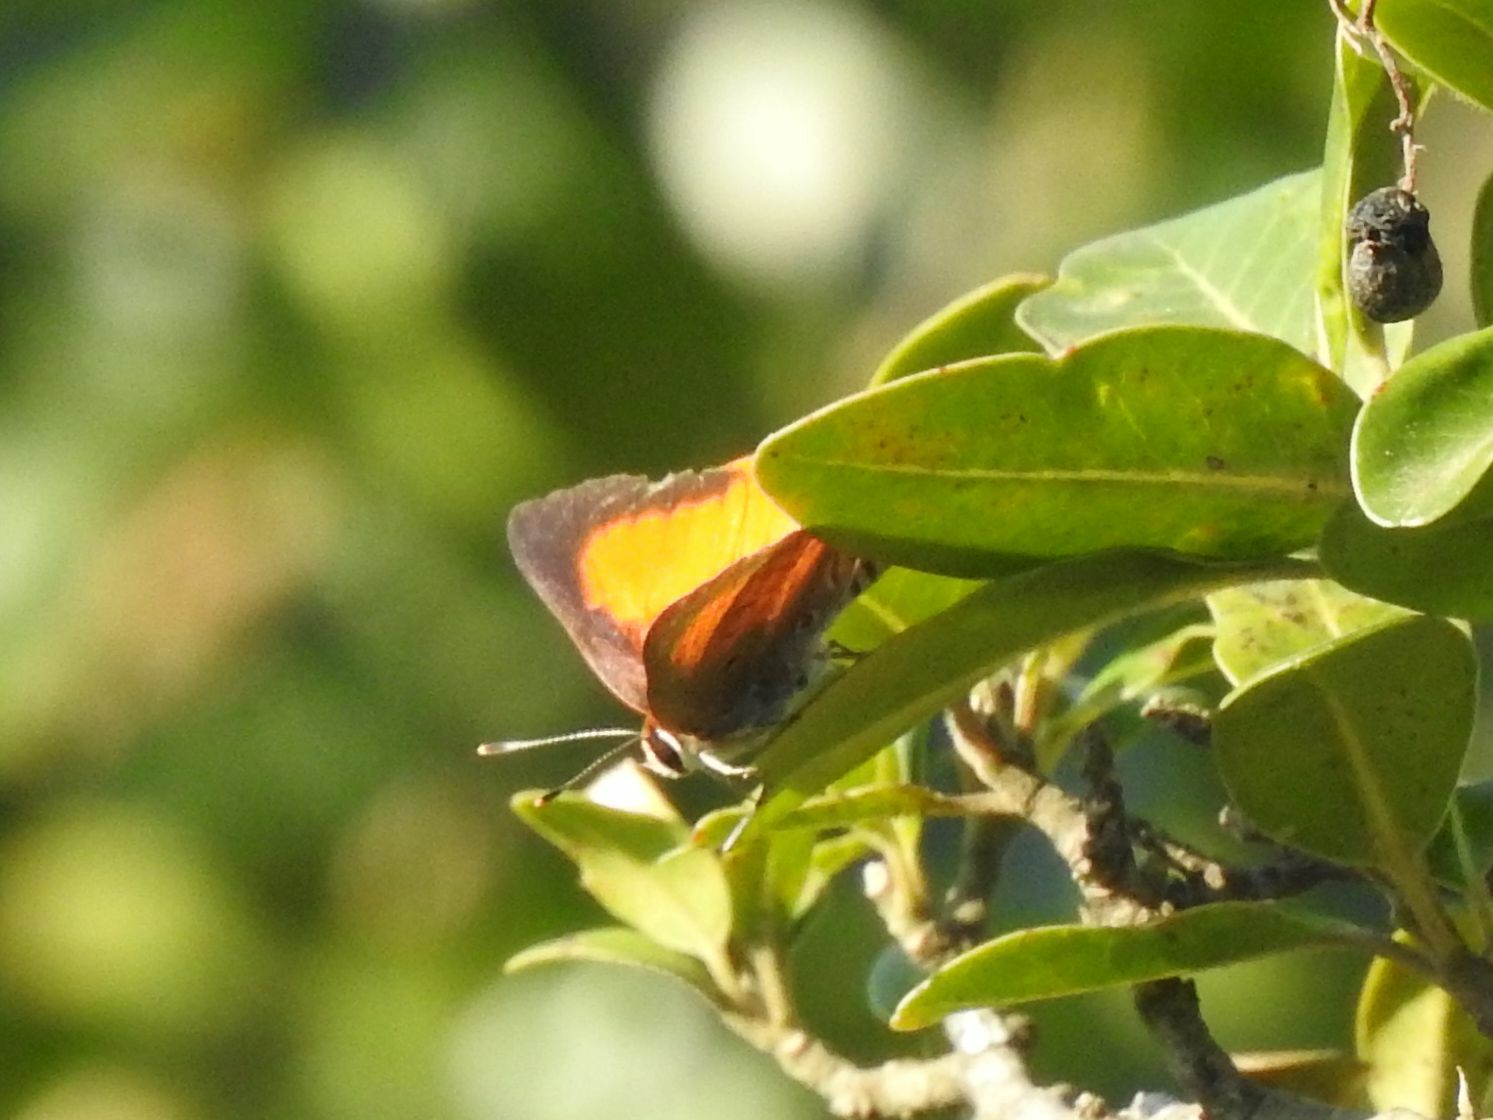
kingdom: Animalia
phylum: Arthropoda
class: Insecta
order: Lepidoptera
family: Lycaenidae
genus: Deudorix
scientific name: Deudorix dinochares
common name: Apricot playboy
